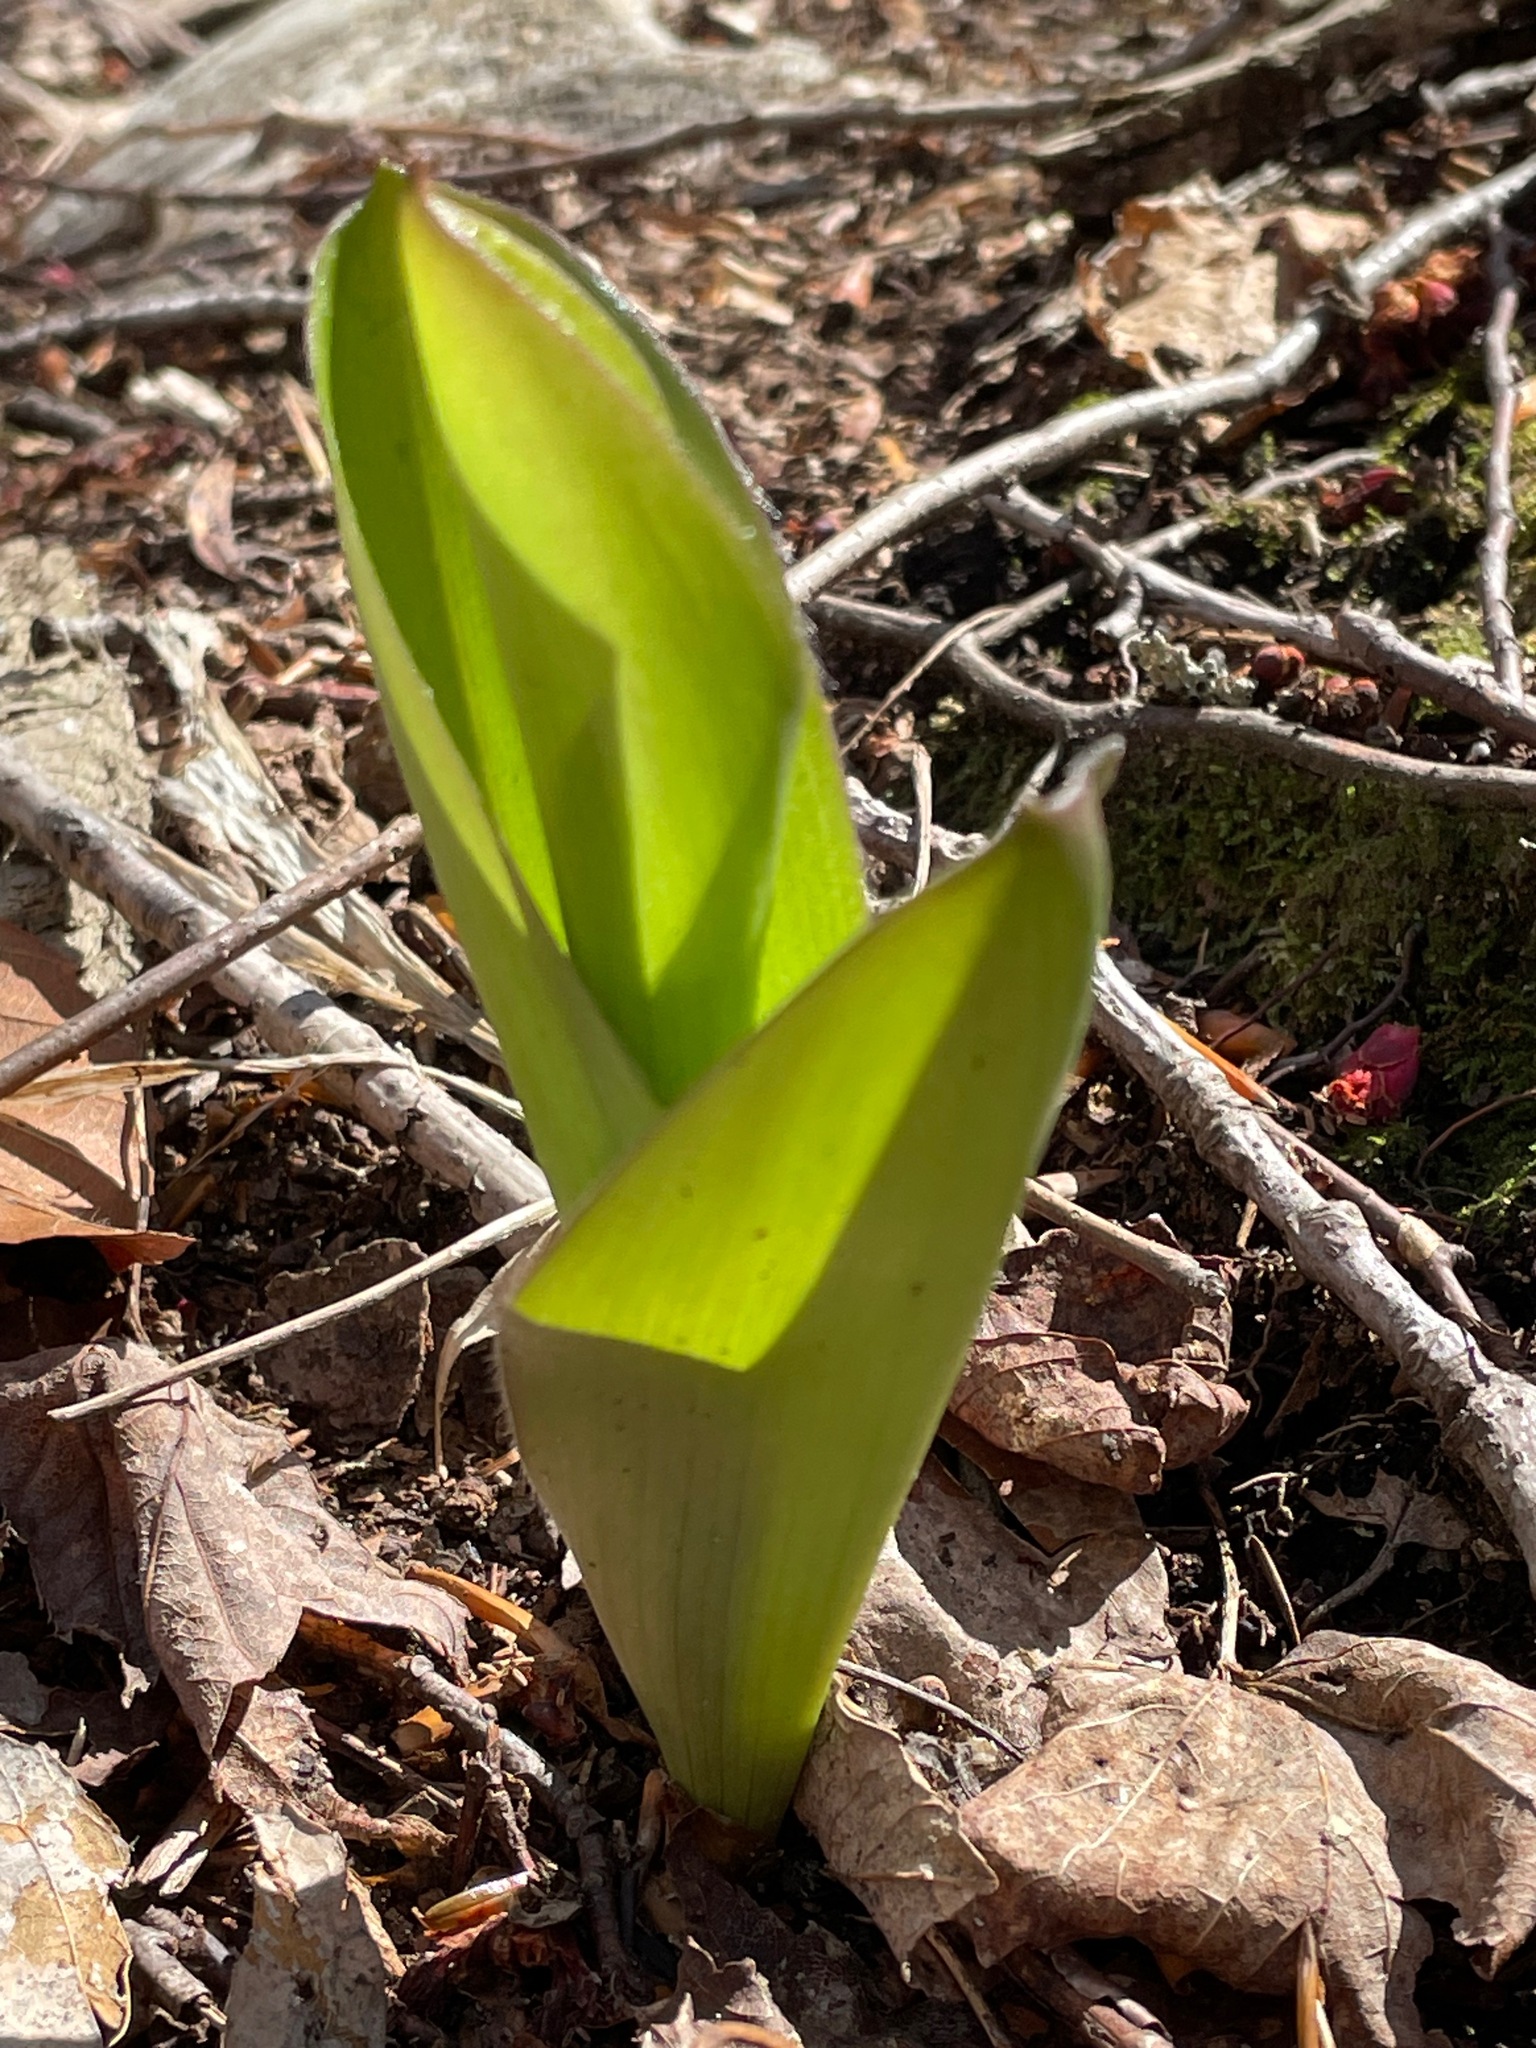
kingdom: Plantae
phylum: Tracheophyta
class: Liliopsida
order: Liliales
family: Liliaceae
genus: Clintonia
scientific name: Clintonia borealis
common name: Yellow clintonia
